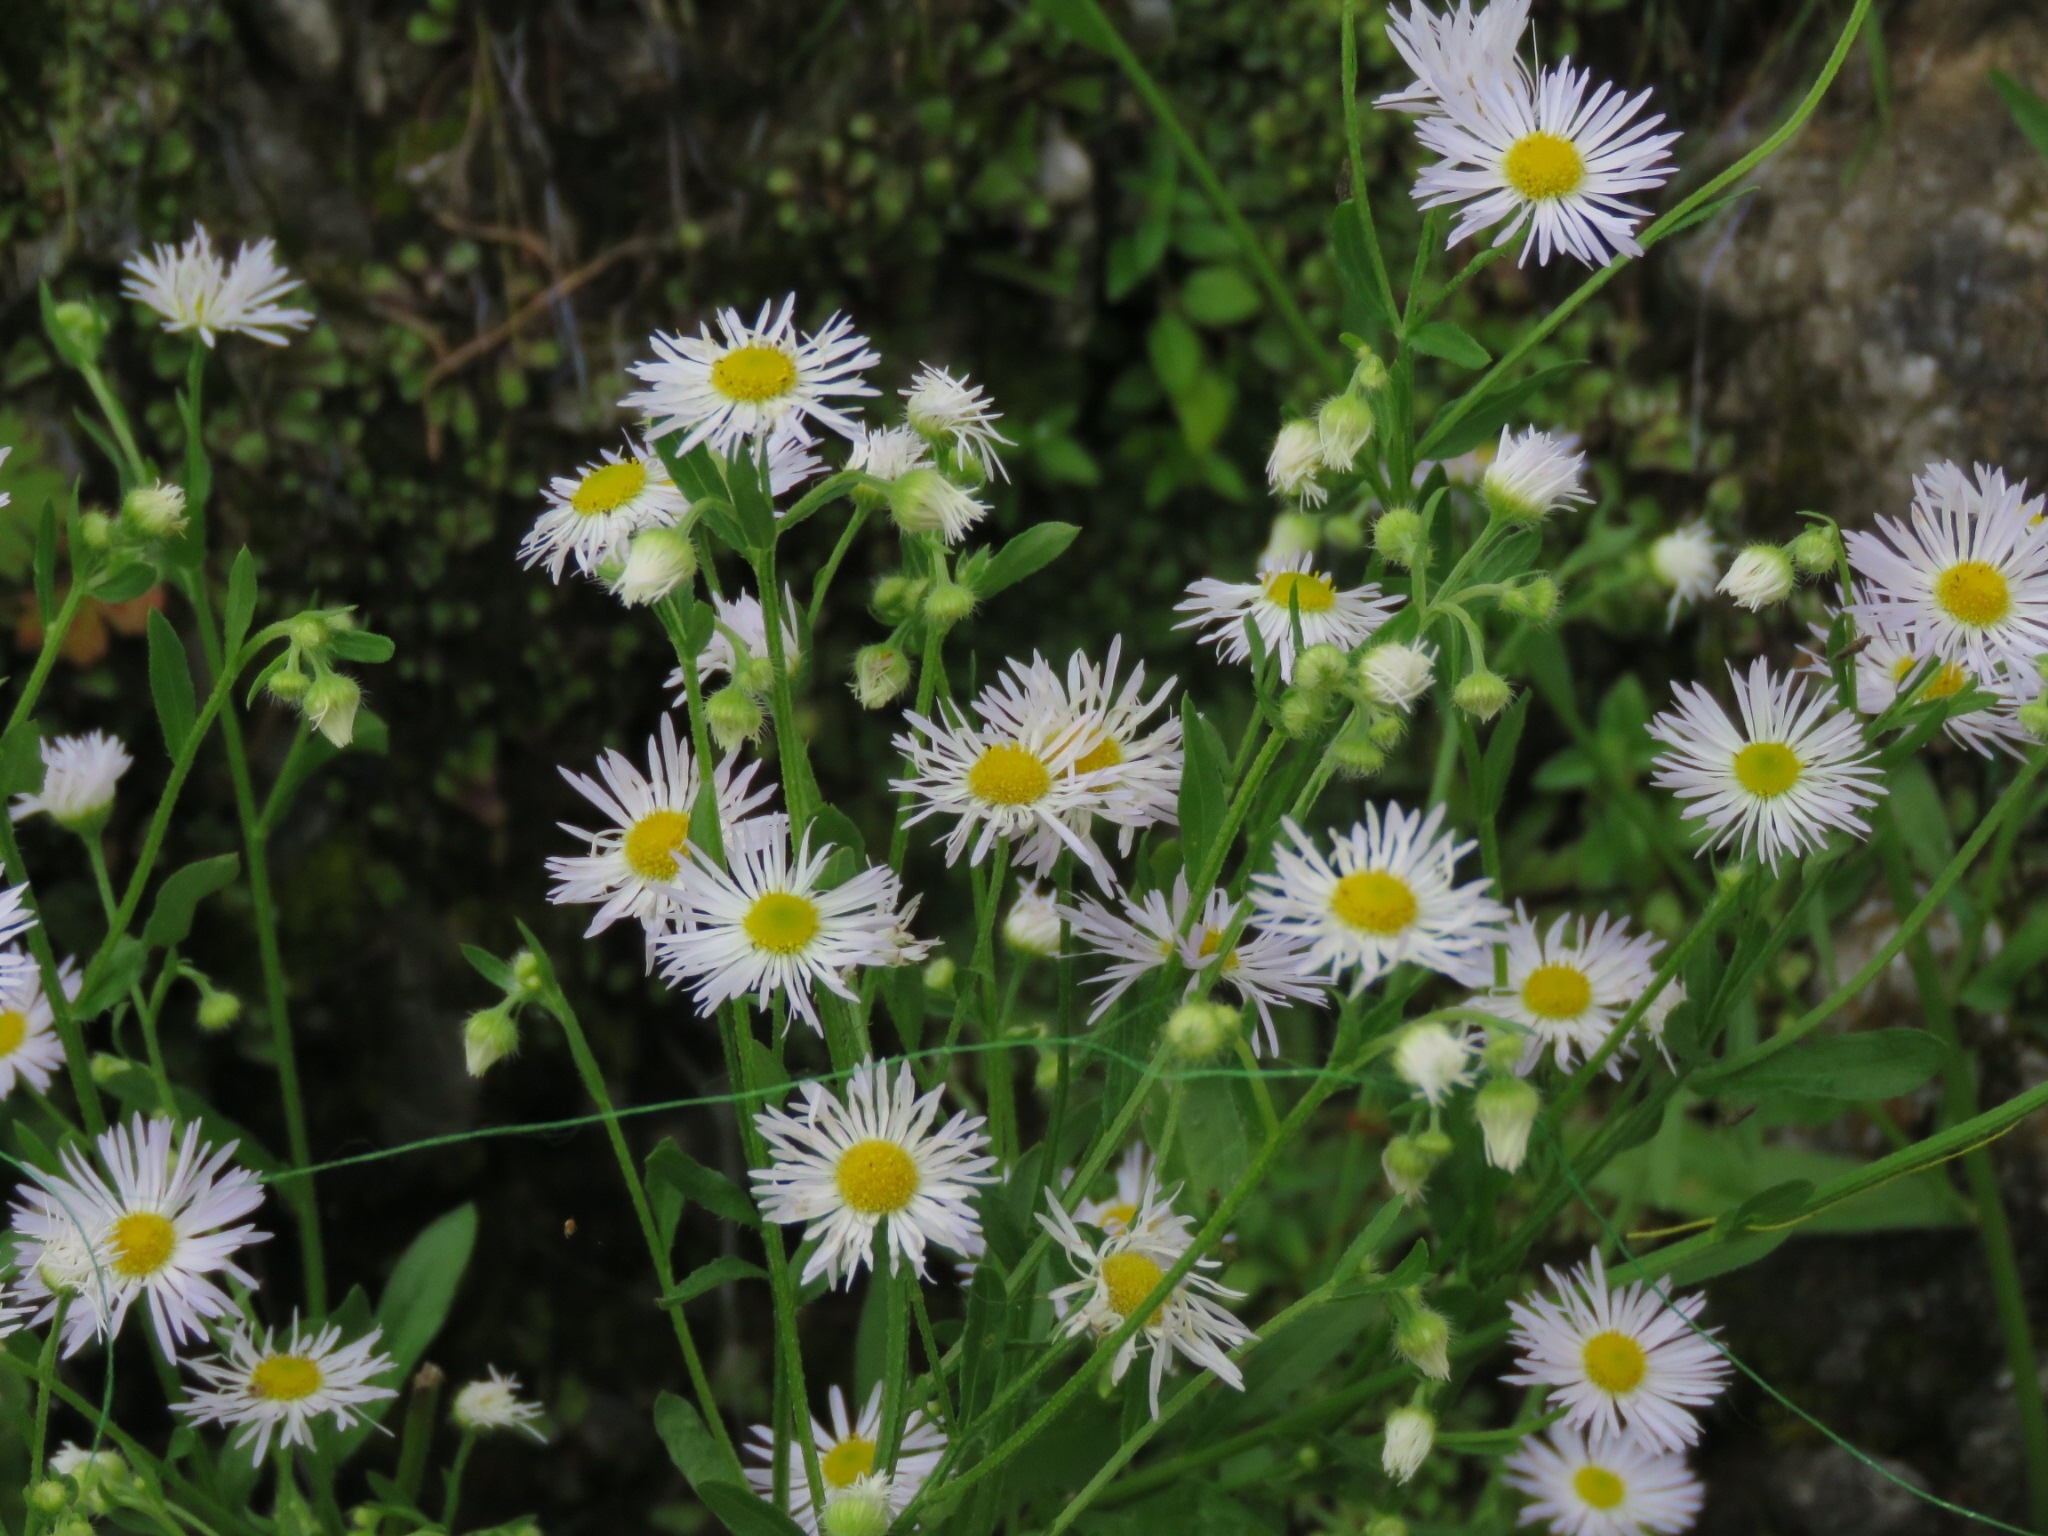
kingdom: Plantae
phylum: Tracheophyta
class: Magnoliopsida
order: Asterales
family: Asteraceae
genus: Erigeron
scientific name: Erigeron strigosus
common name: Common eastern fleabane
